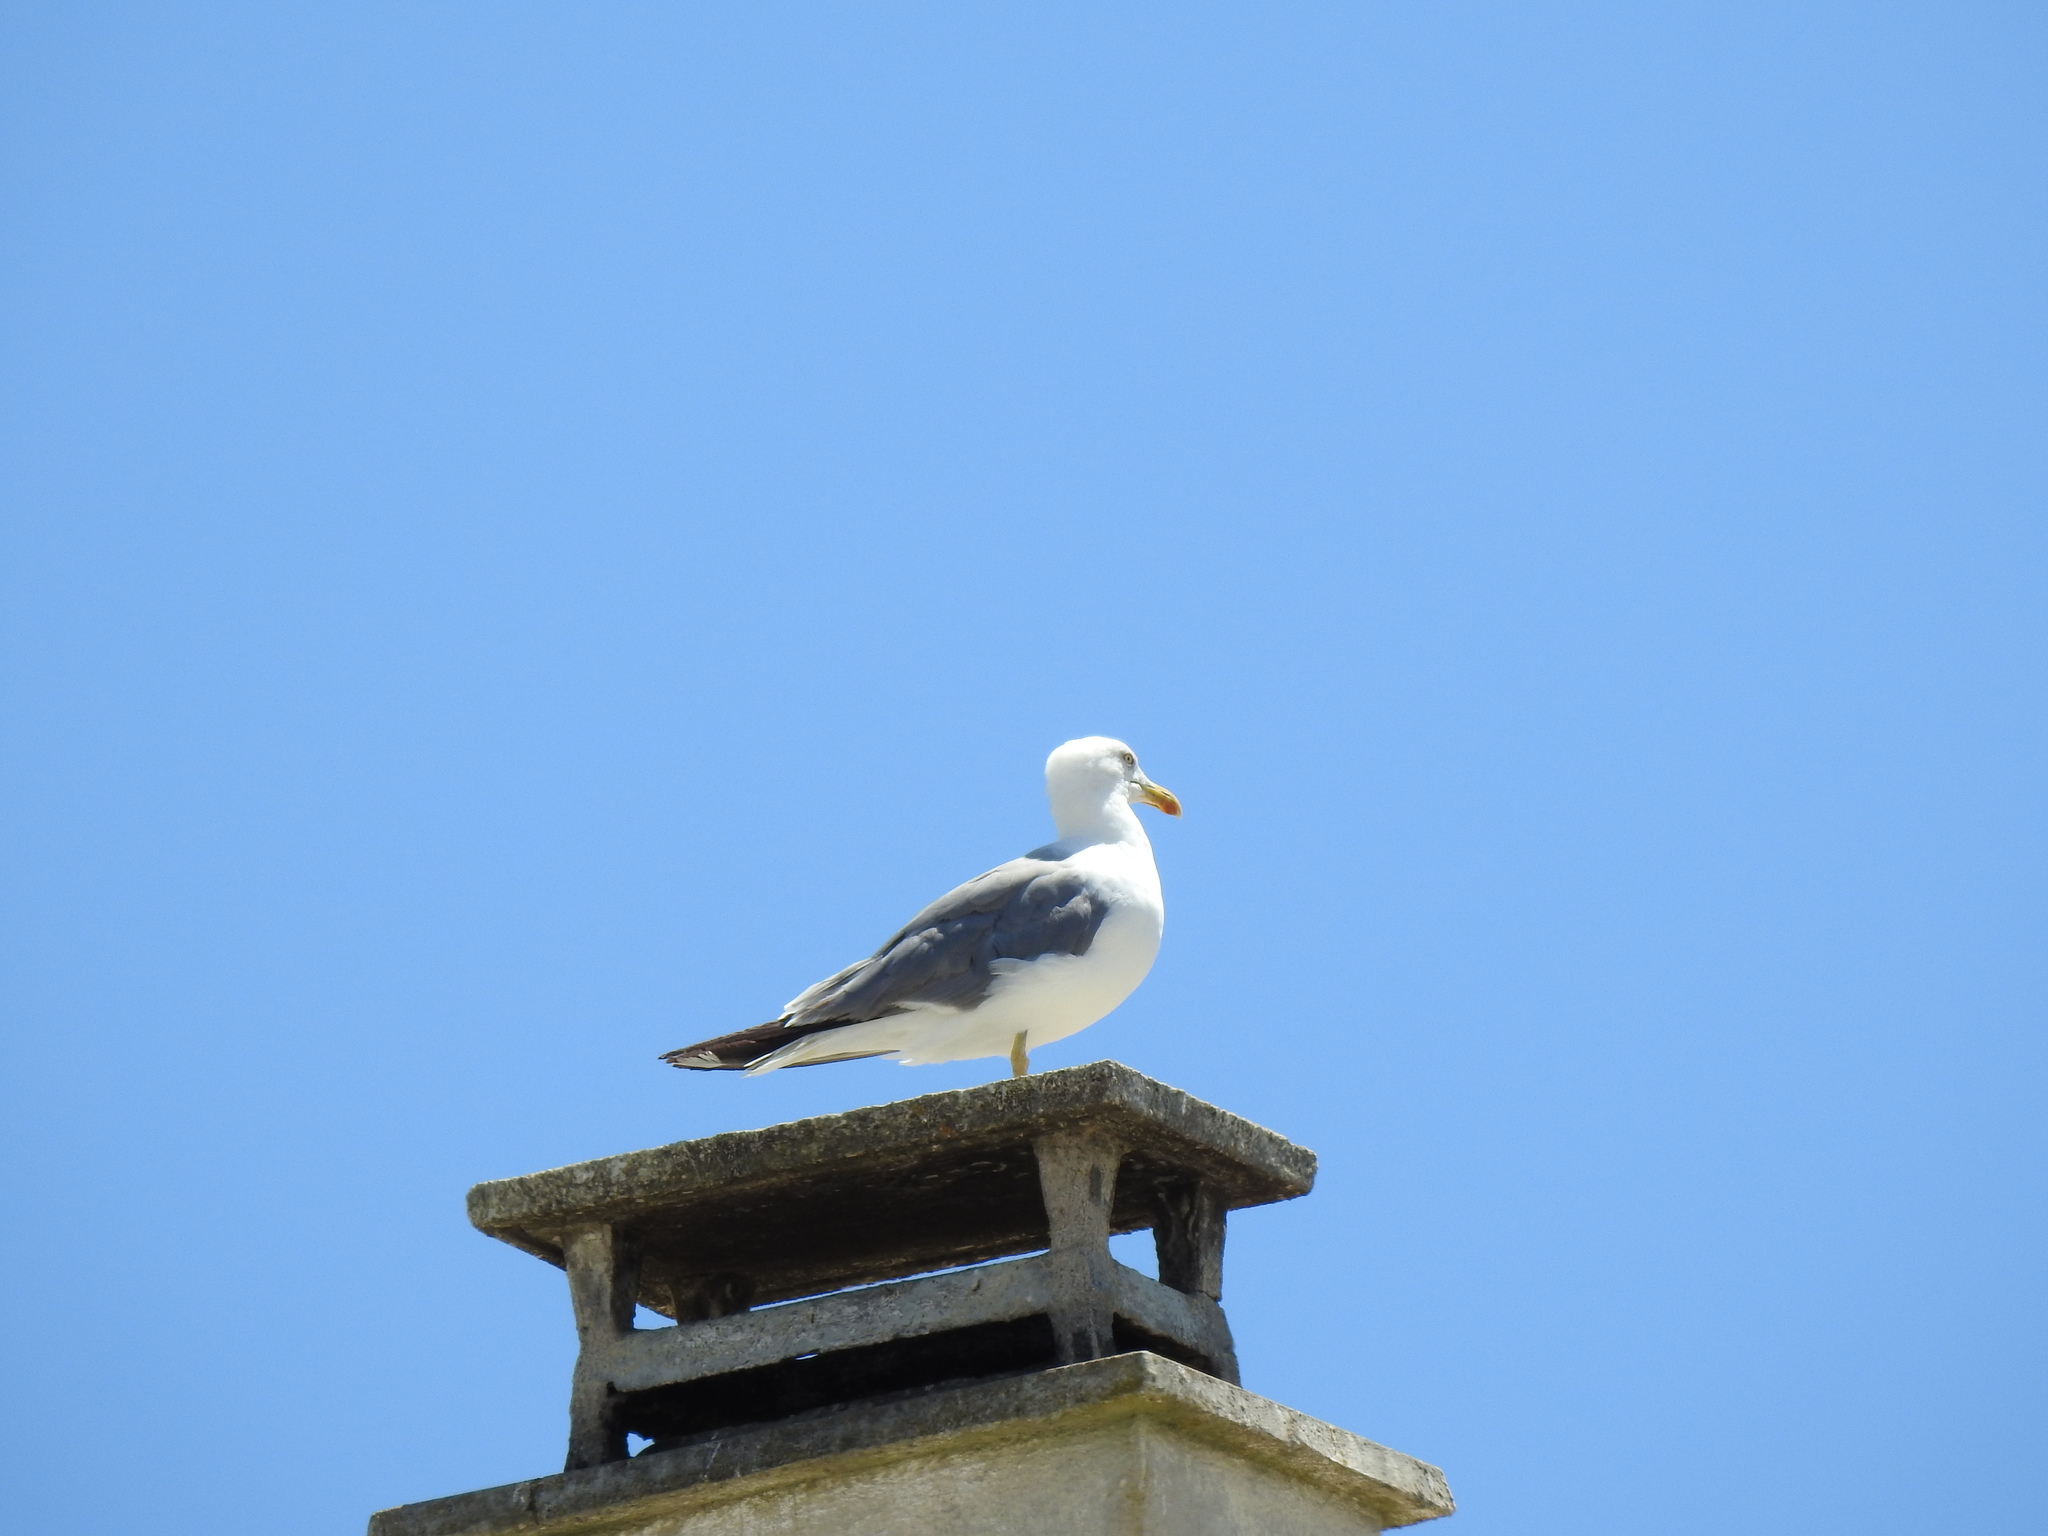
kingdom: Animalia
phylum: Chordata
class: Aves
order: Charadriiformes
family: Laridae
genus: Larus
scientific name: Larus michahellis
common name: Yellow-legged gull
